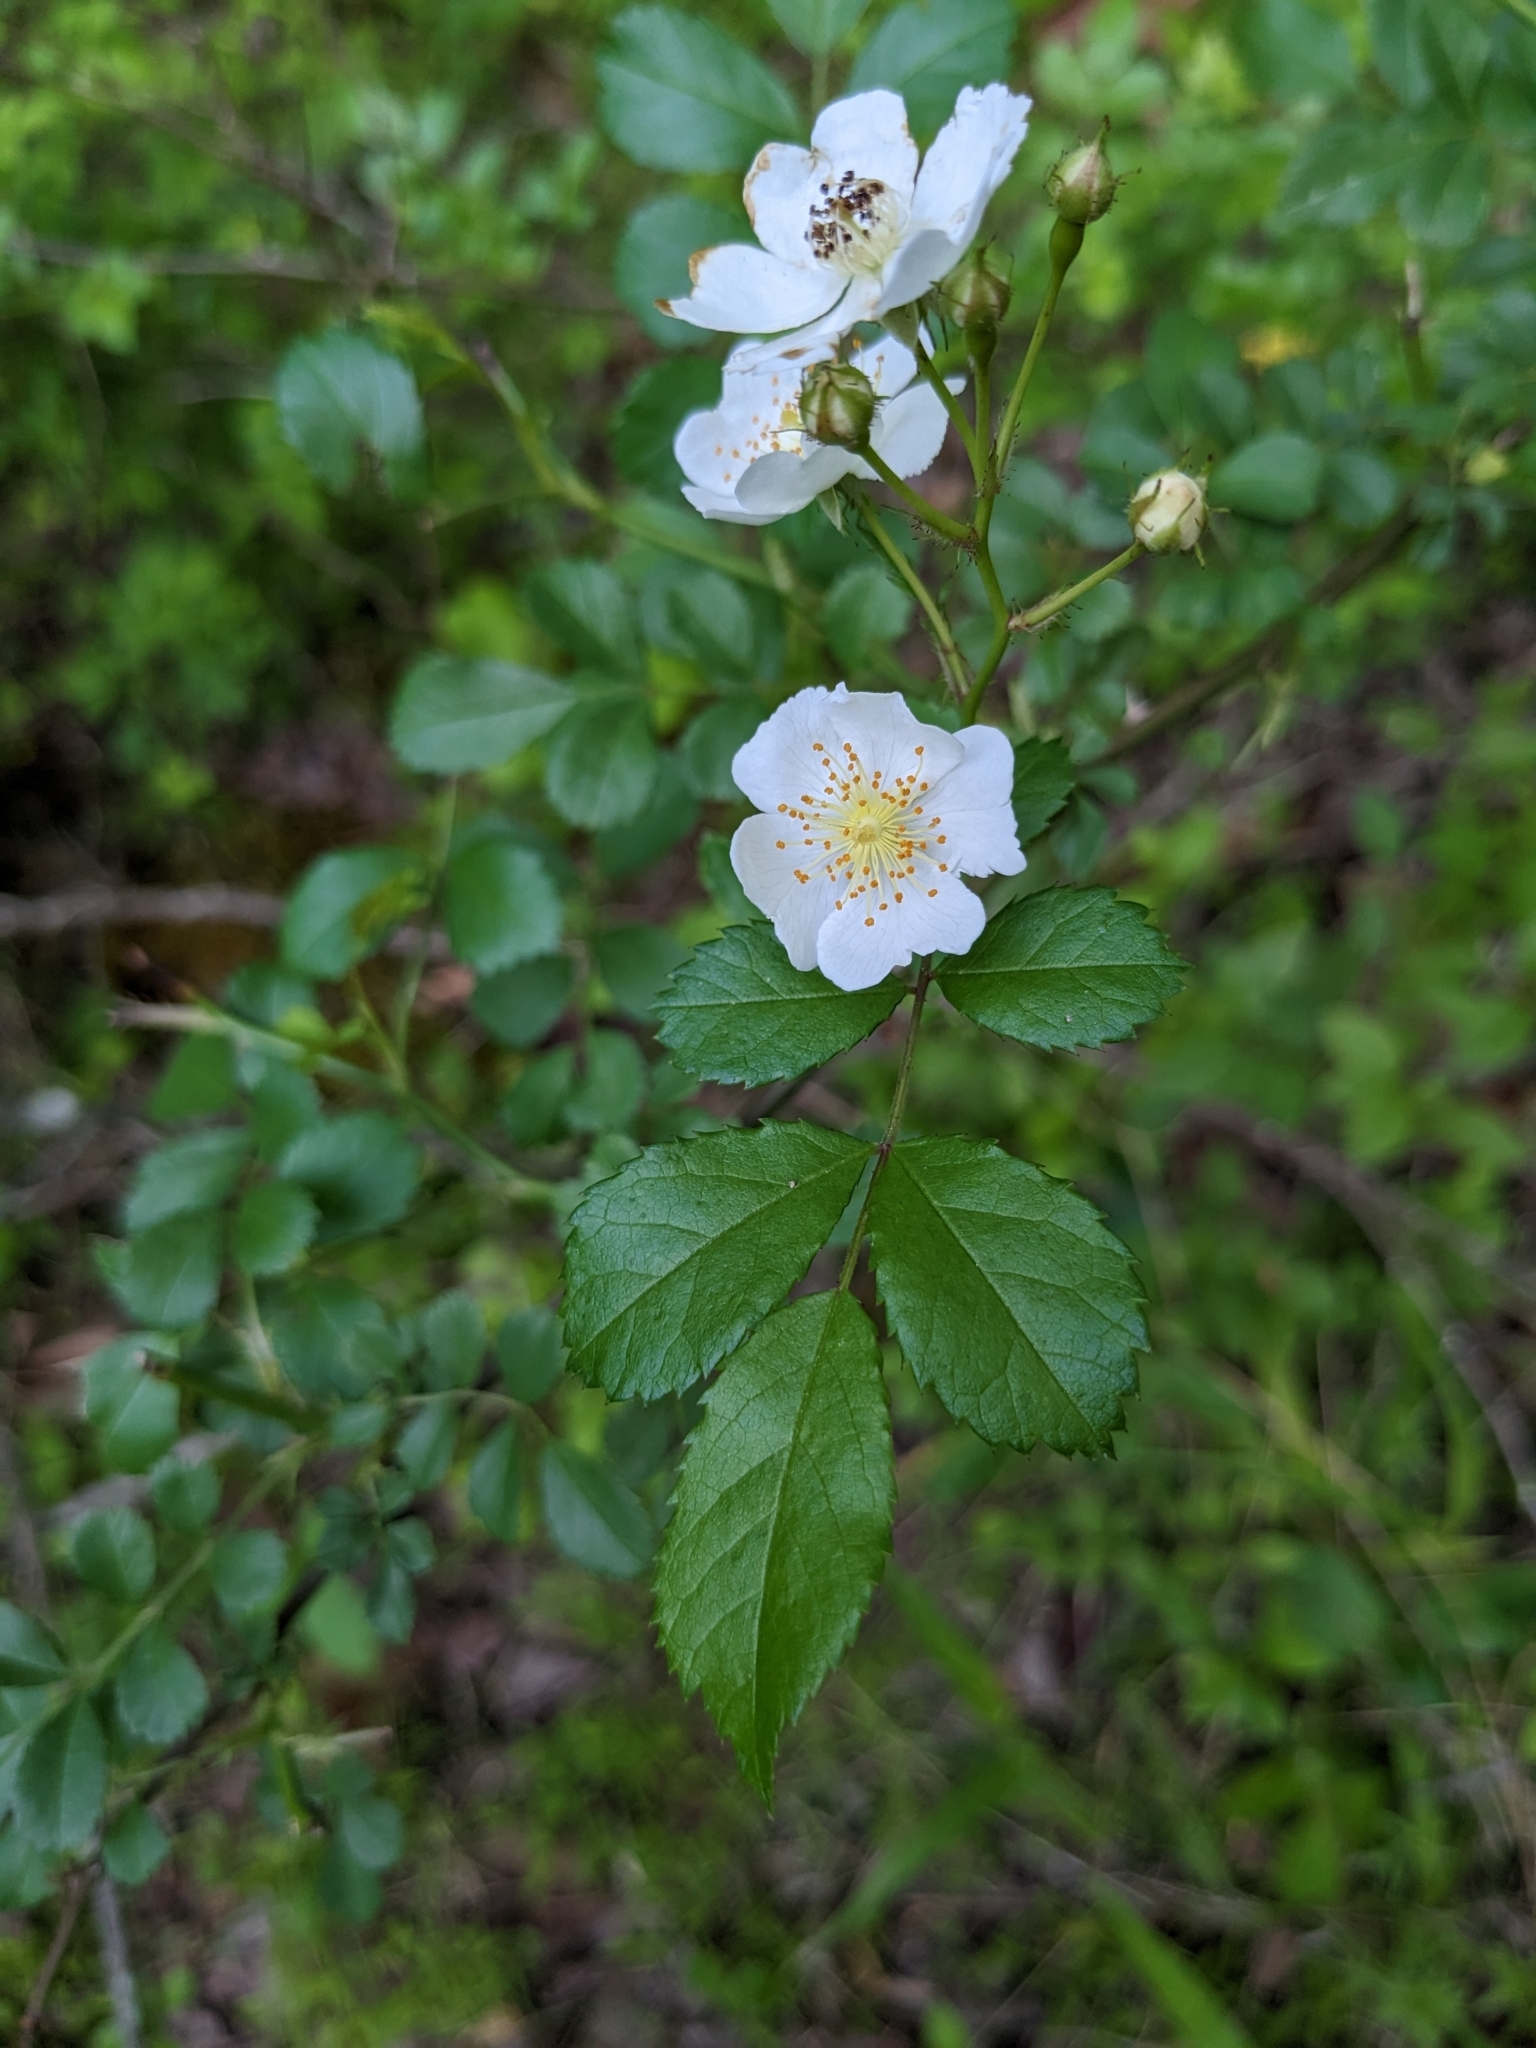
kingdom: Plantae
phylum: Tracheophyta
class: Magnoliopsida
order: Rosales
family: Rosaceae
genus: Rosa
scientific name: Rosa multiflora
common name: Multiflora rose
